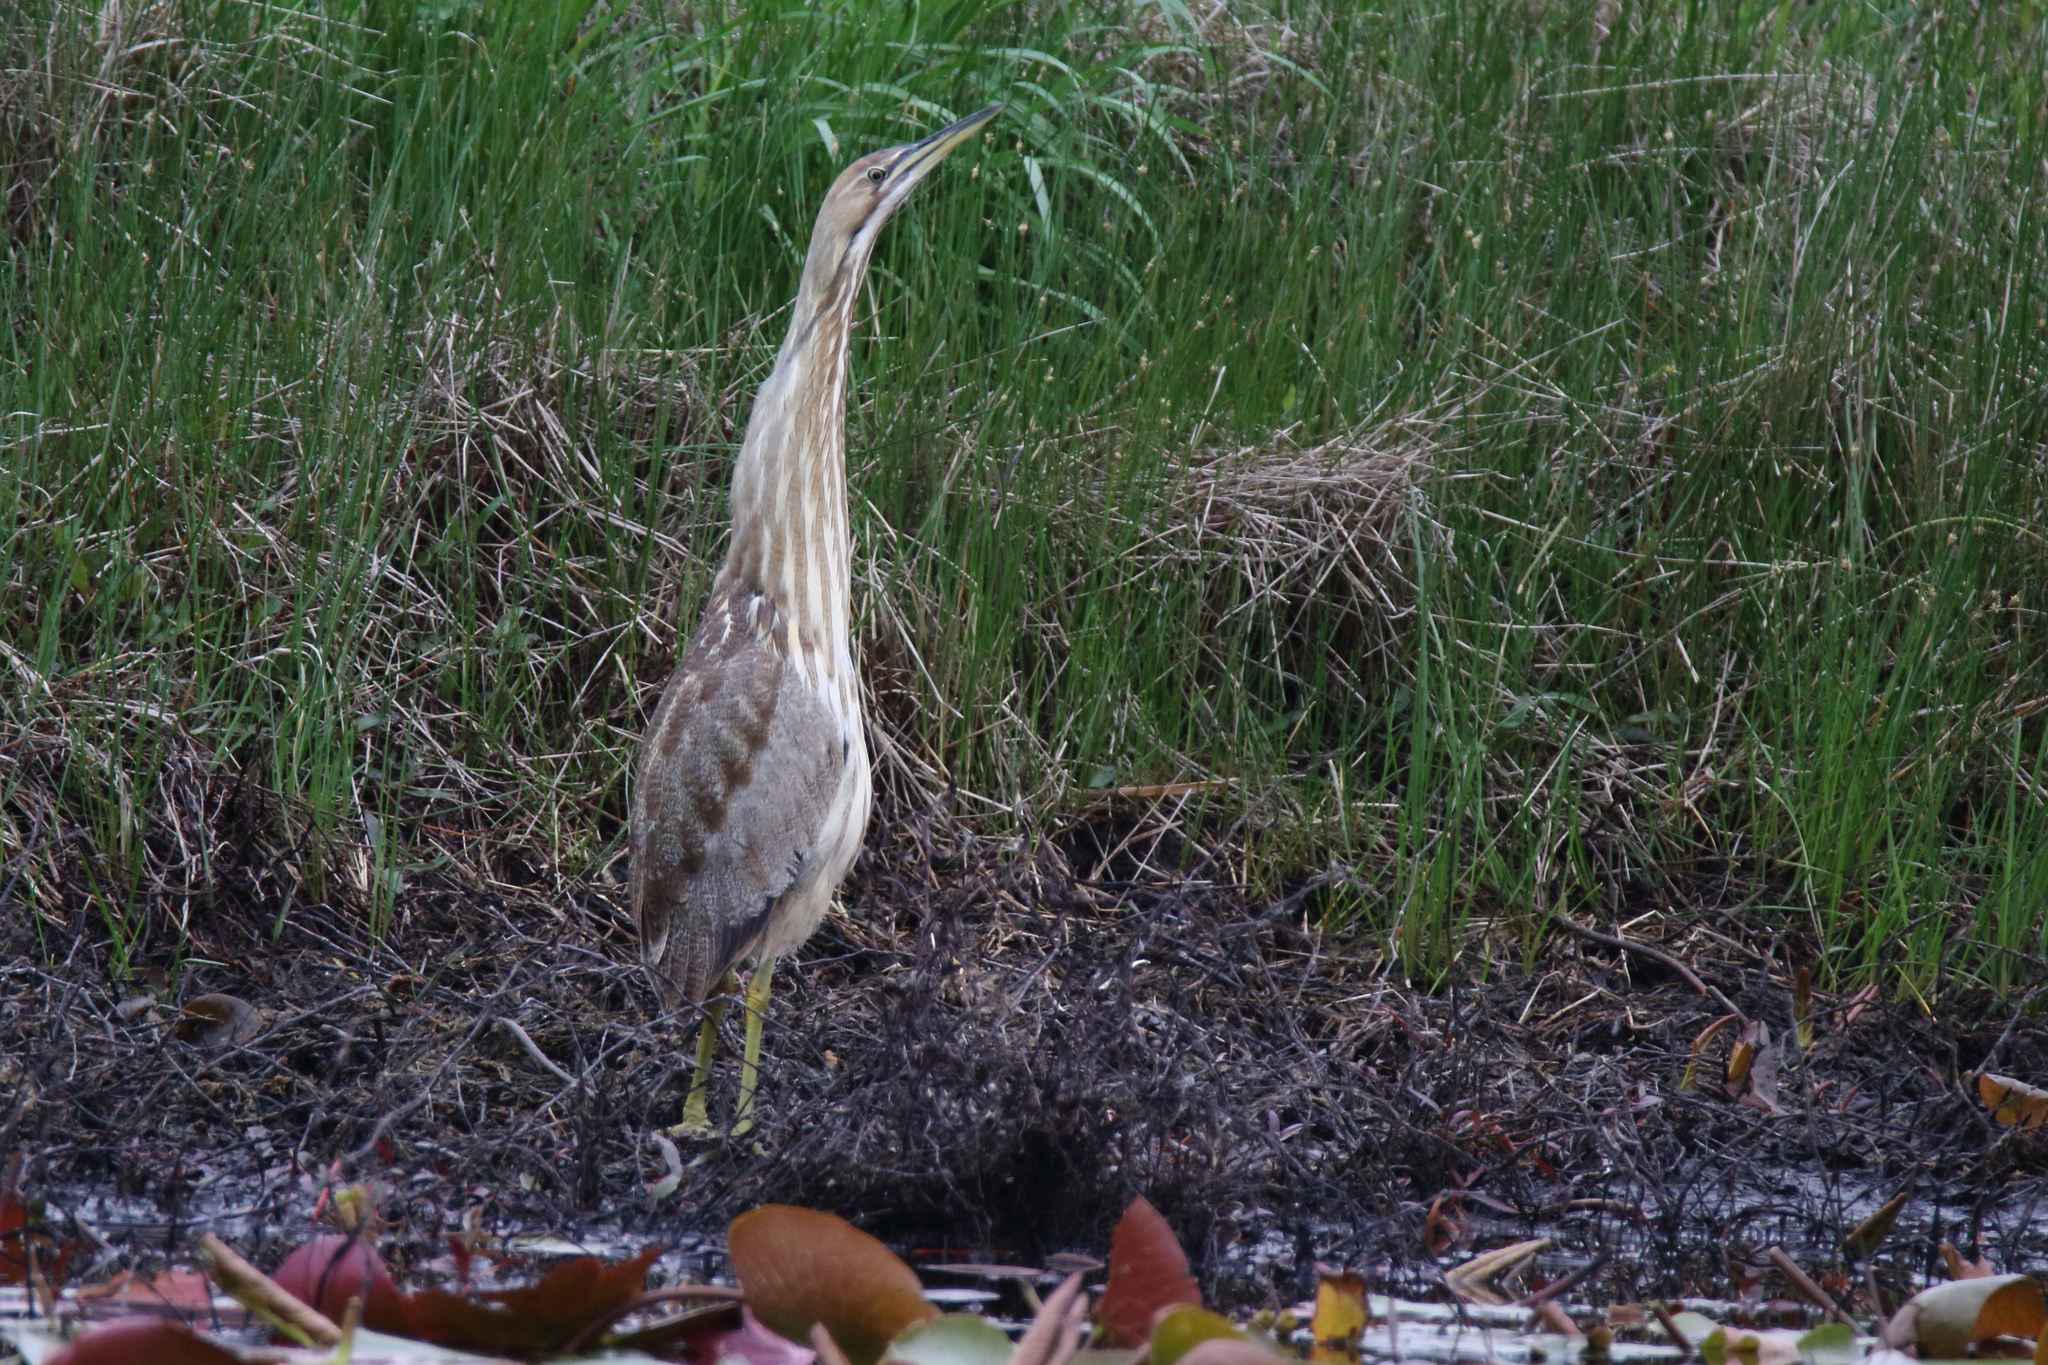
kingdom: Animalia
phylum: Chordata
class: Aves
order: Pelecaniformes
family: Ardeidae
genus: Botaurus
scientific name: Botaurus lentiginosus
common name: American bittern
